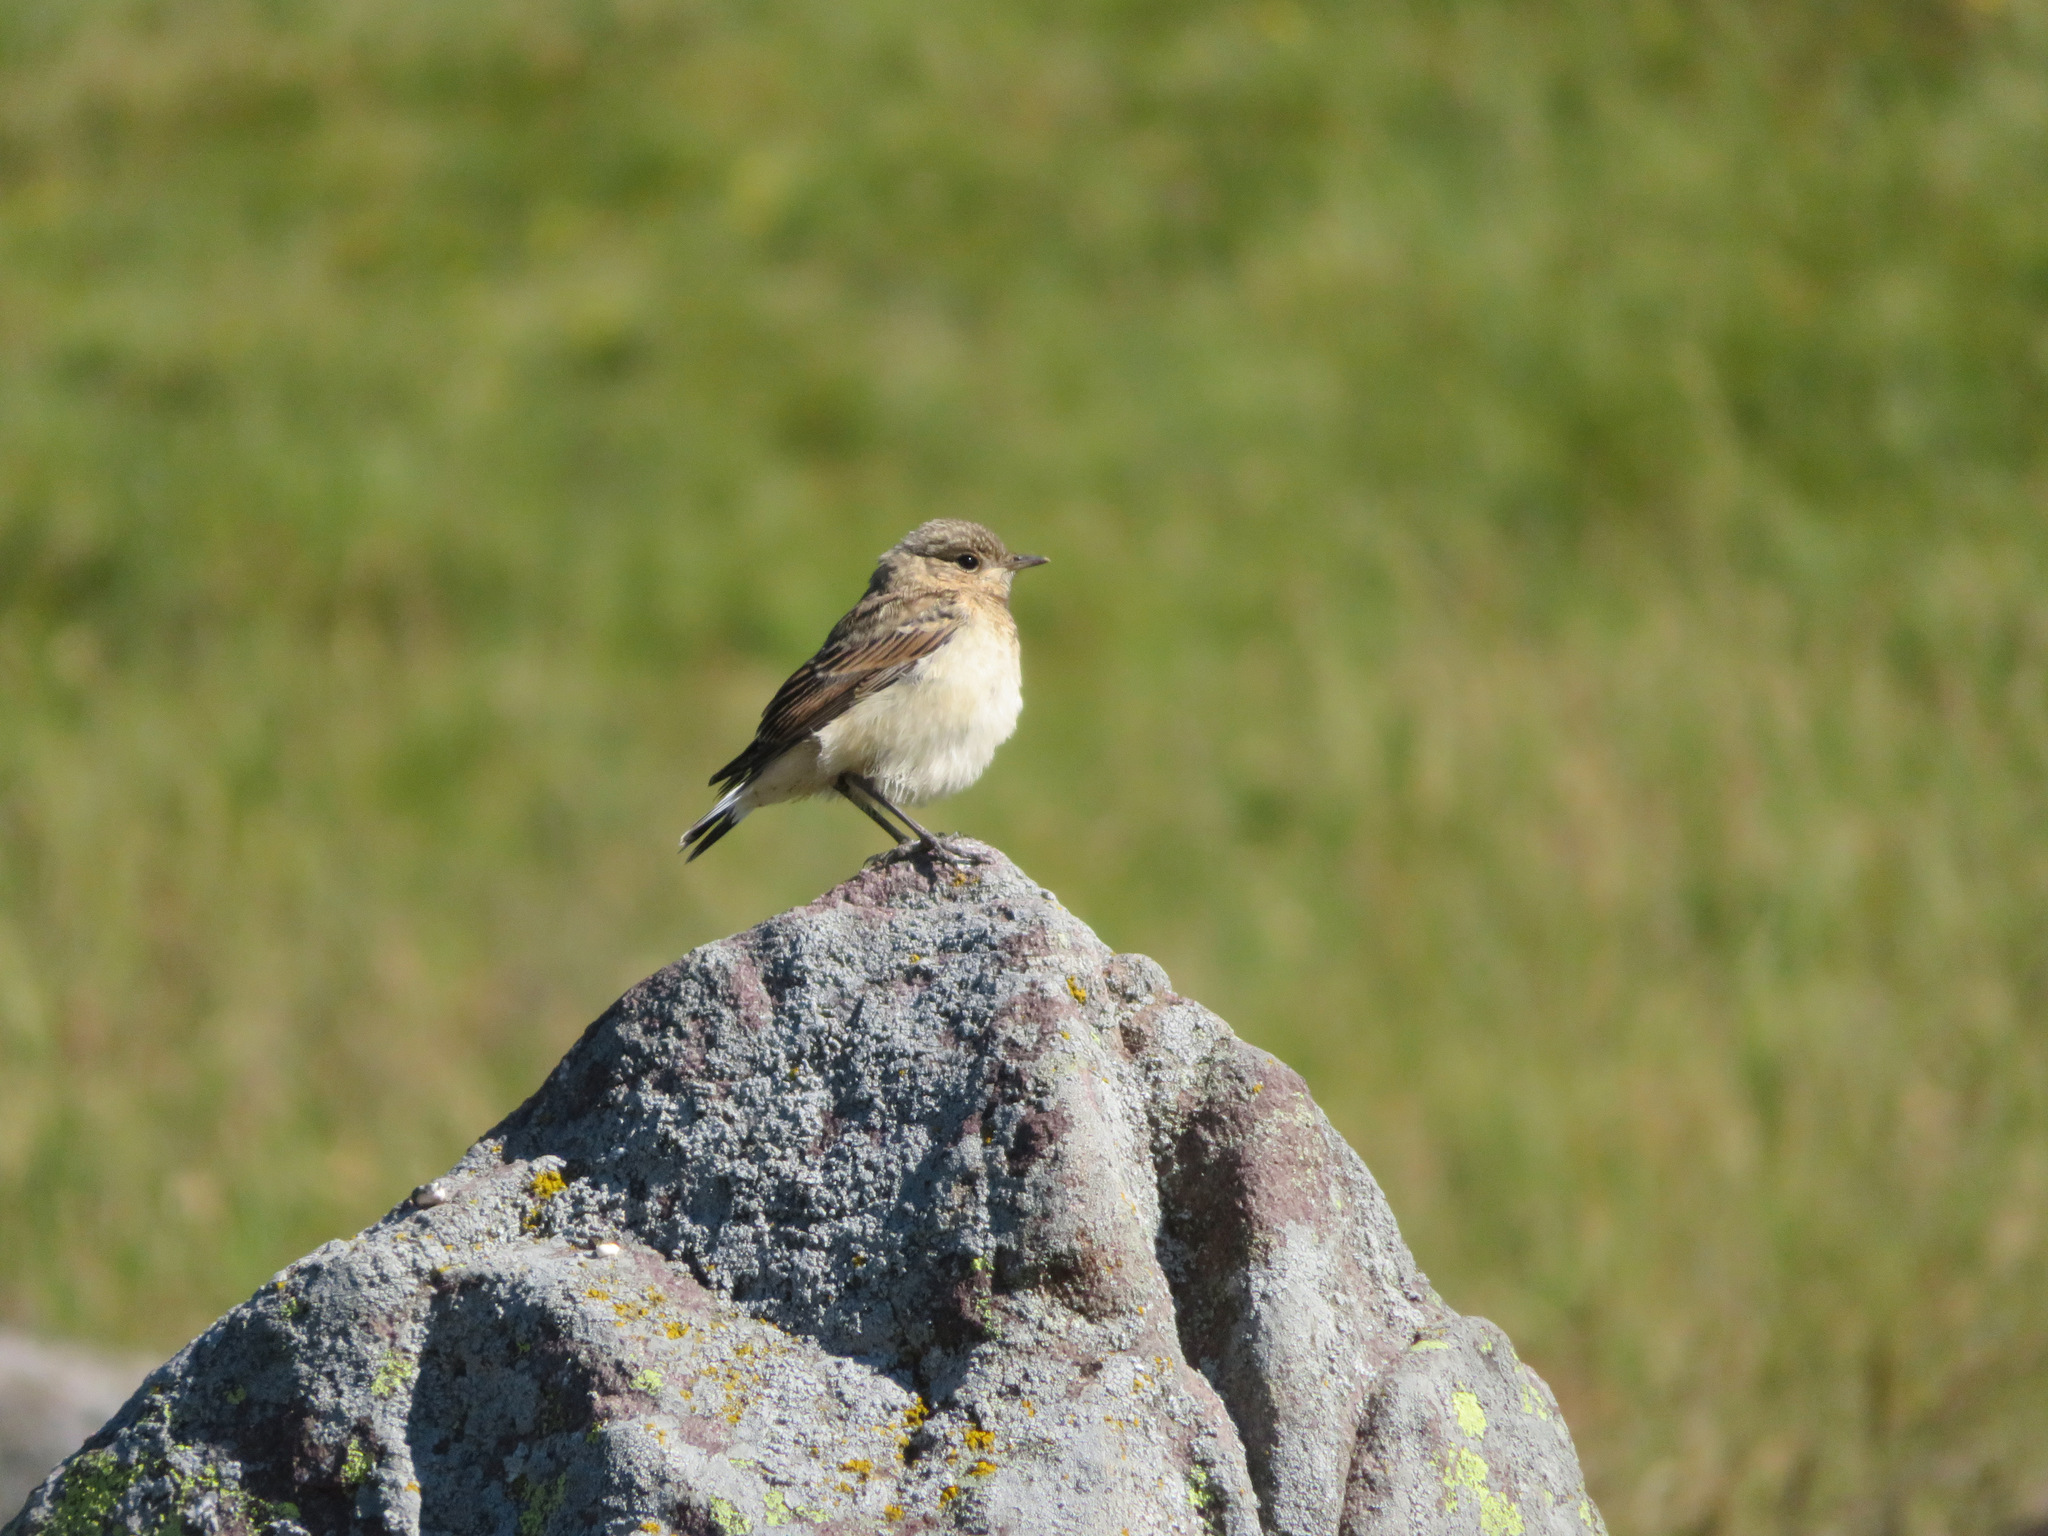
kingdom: Animalia
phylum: Chordata
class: Aves
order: Passeriformes
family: Muscicapidae
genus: Oenanthe
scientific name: Oenanthe oenanthe
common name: Northern wheatear
